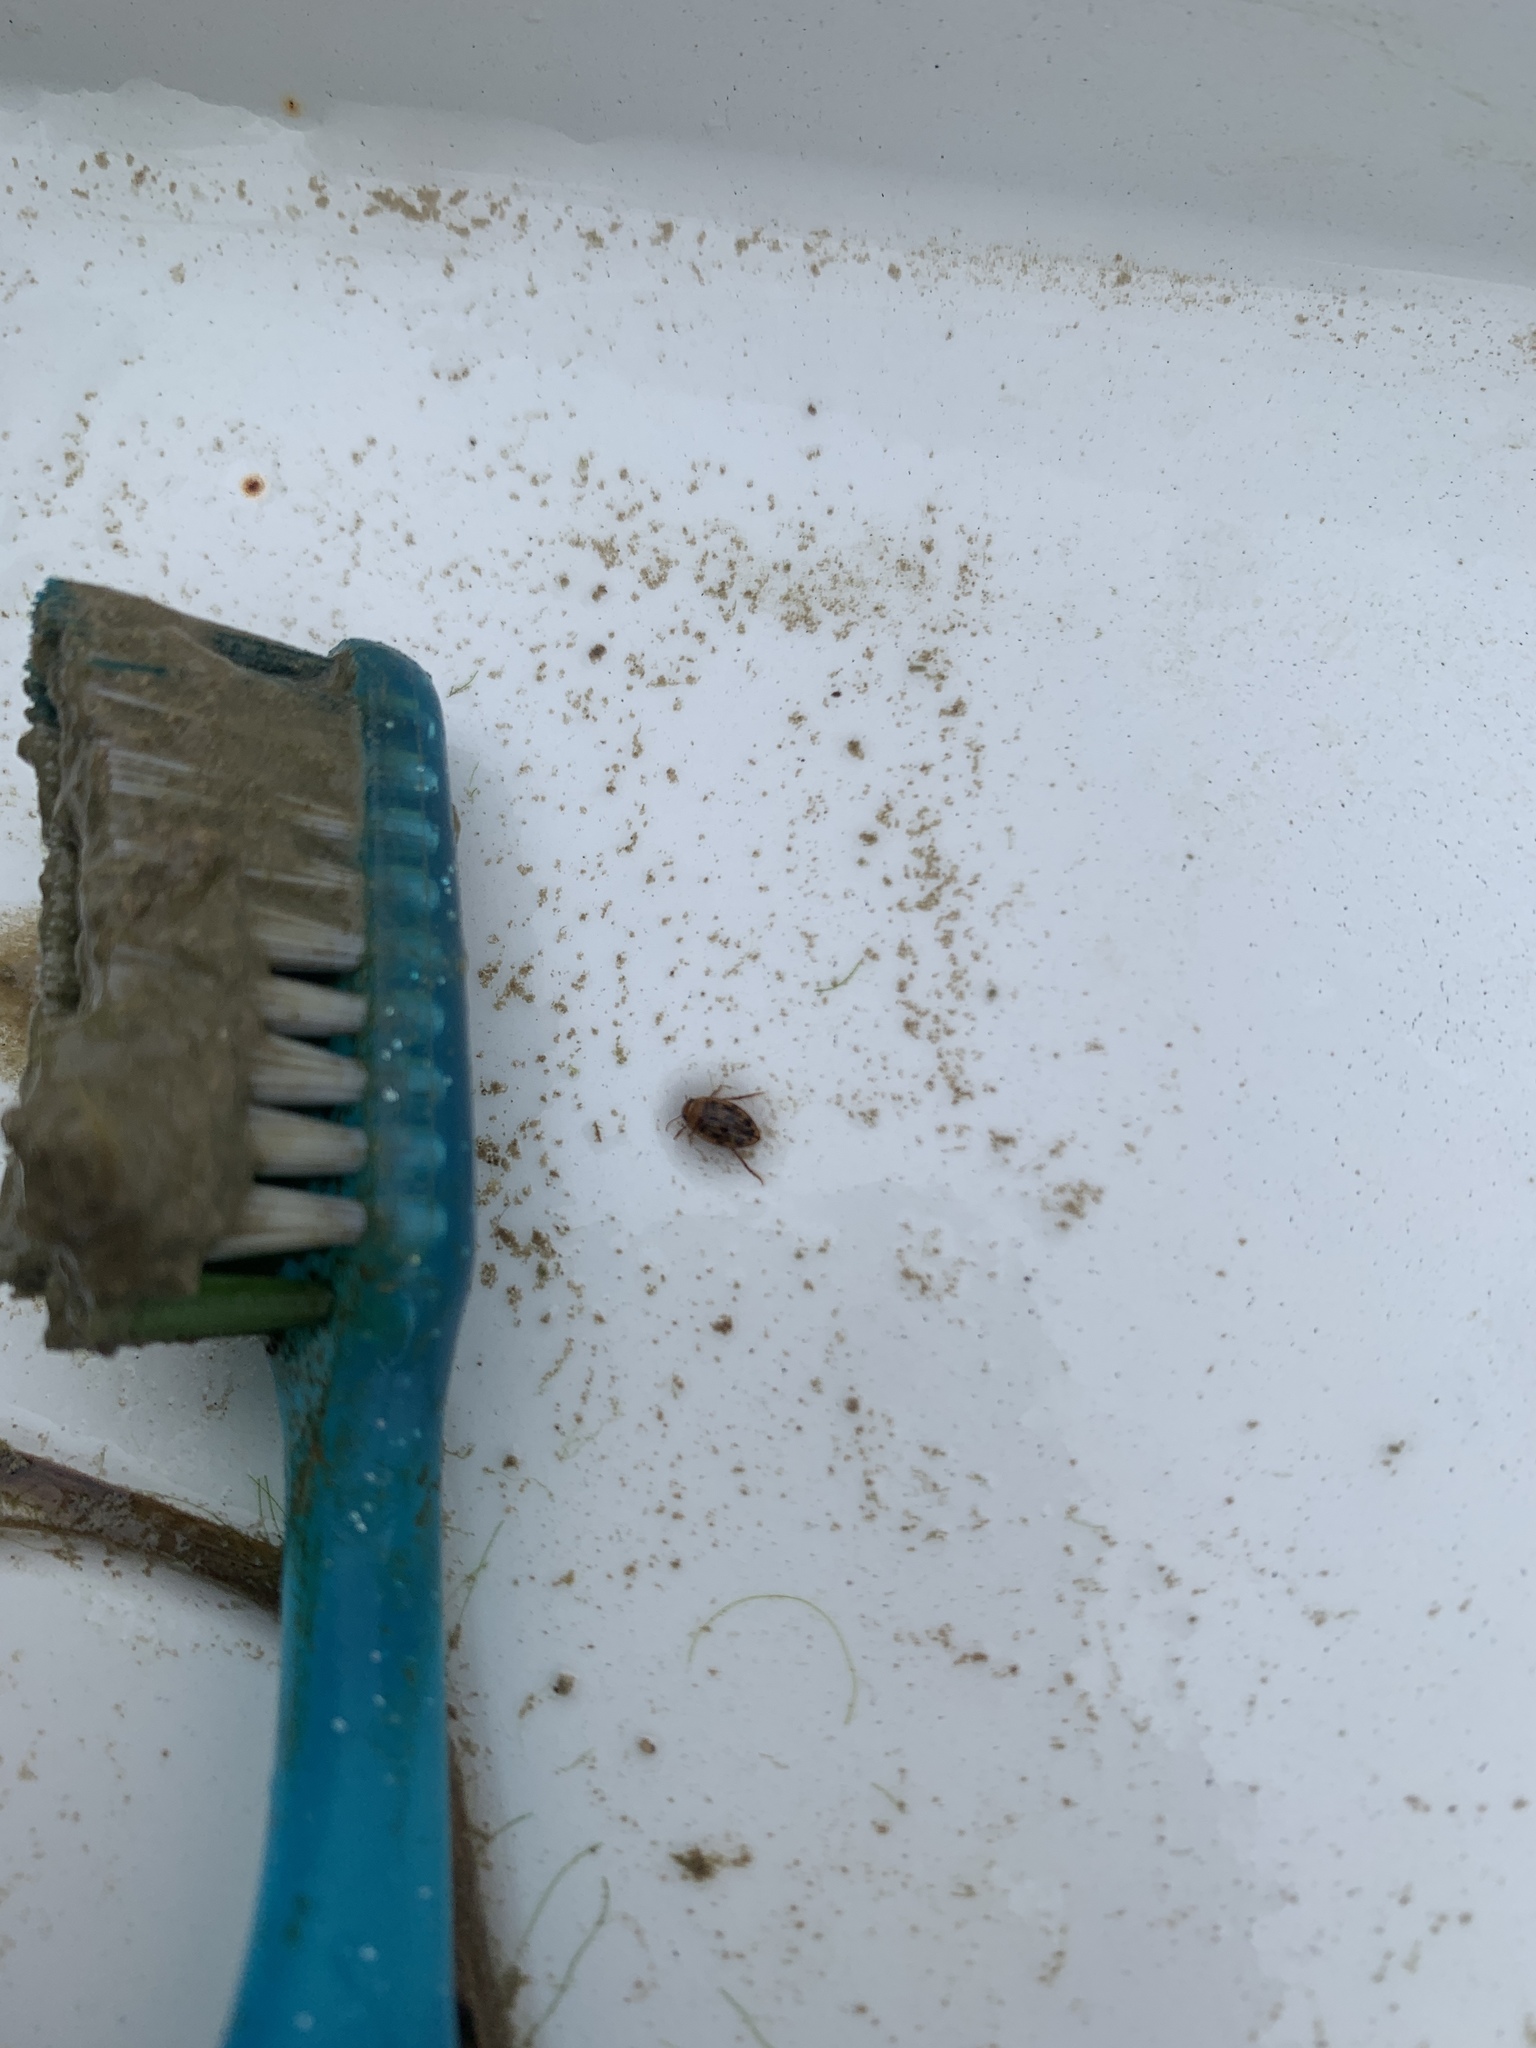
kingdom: Animalia
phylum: Arthropoda
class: Insecta
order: Coleoptera
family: Dytiscidae
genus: Neoporus
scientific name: Neoporus dimidiatus
